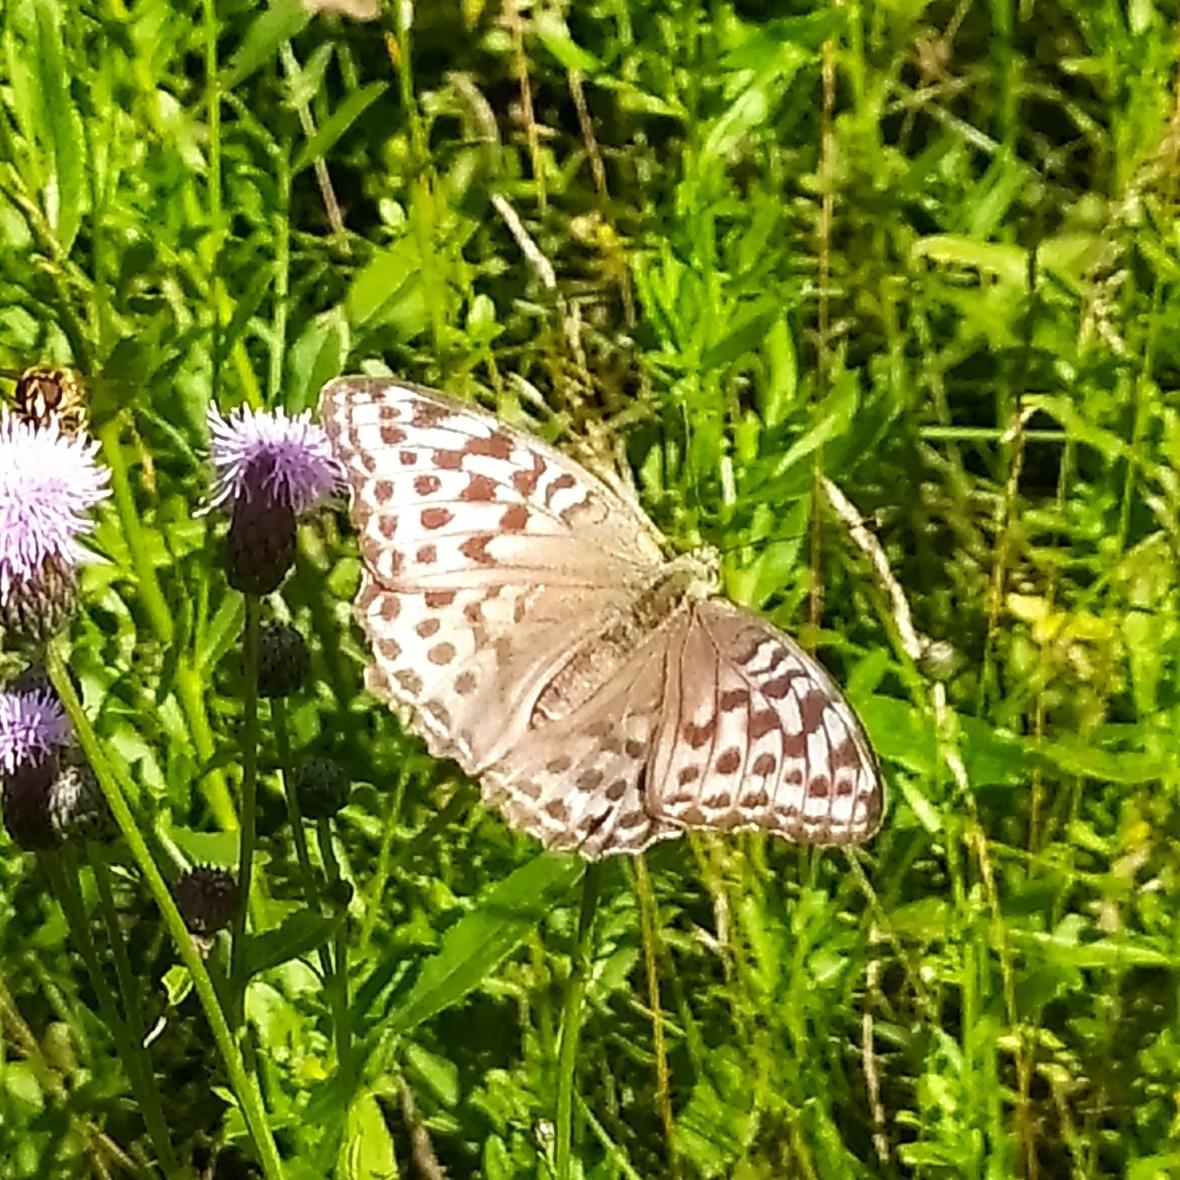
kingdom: Animalia
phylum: Arthropoda
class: Insecta
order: Lepidoptera
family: Nymphalidae
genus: Argynnis
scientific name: Argynnis paphia
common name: Silver-washed fritillary
